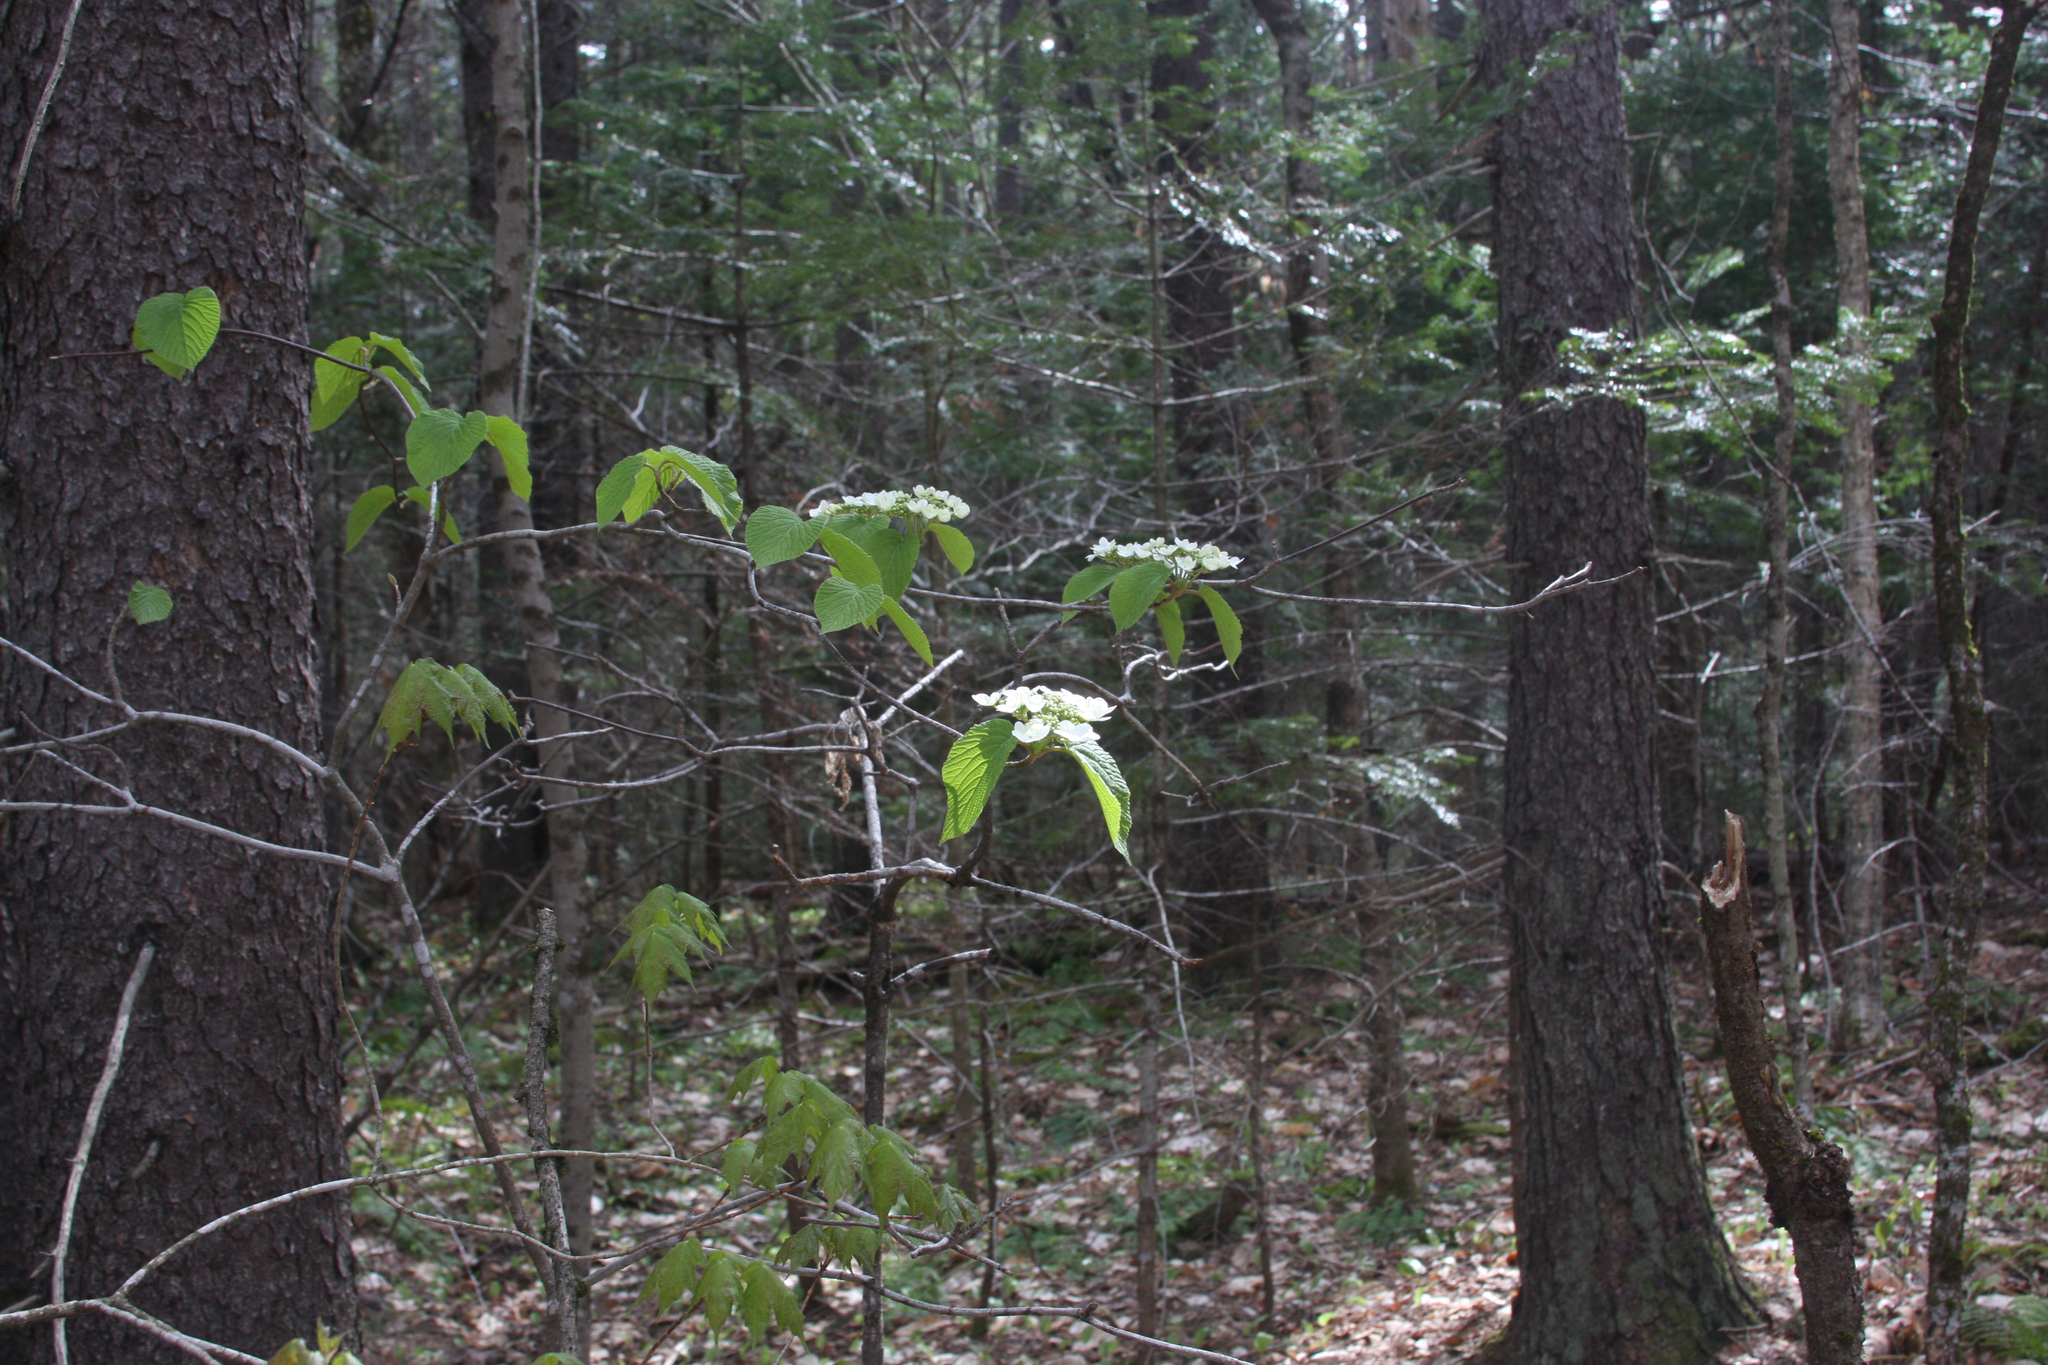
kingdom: Plantae
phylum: Tracheophyta
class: Magnoliopsida
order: Dipsacales
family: Viburnaceae
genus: Viburnum
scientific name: Viburnum lantanoides
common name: Hobblebush
